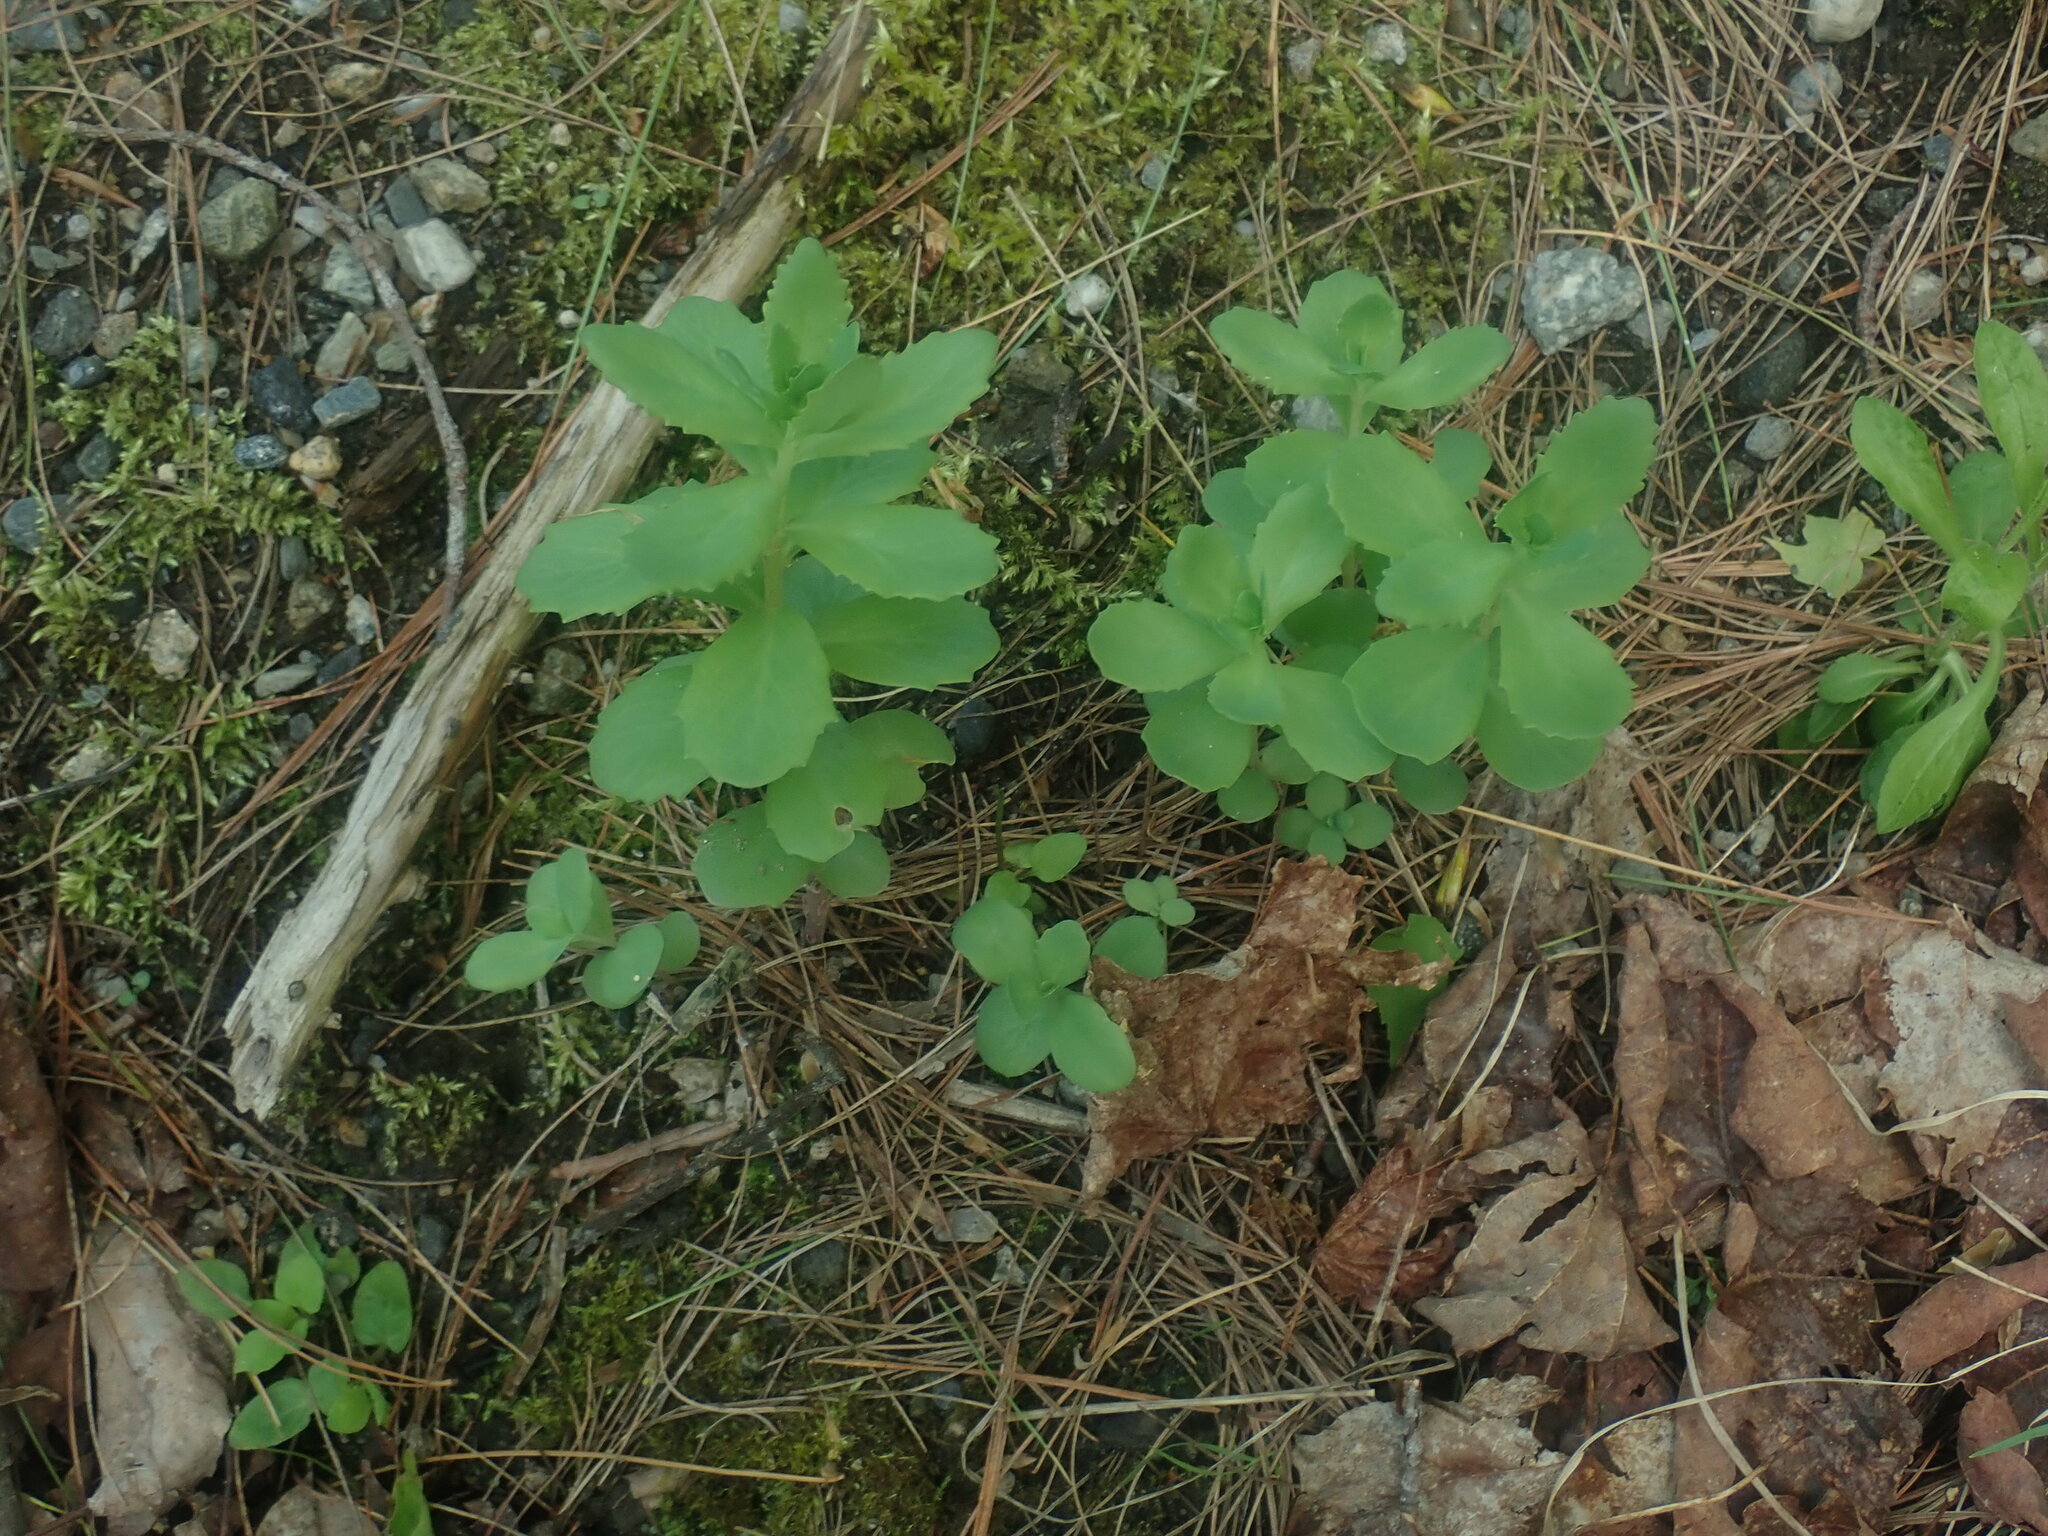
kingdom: Plantae
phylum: Tracheophyta
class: Magnoliopsida
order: Saxifragales
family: Crassulaceae
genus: Hylotelephium
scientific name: Hylotelephium telephium
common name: Live-forever
